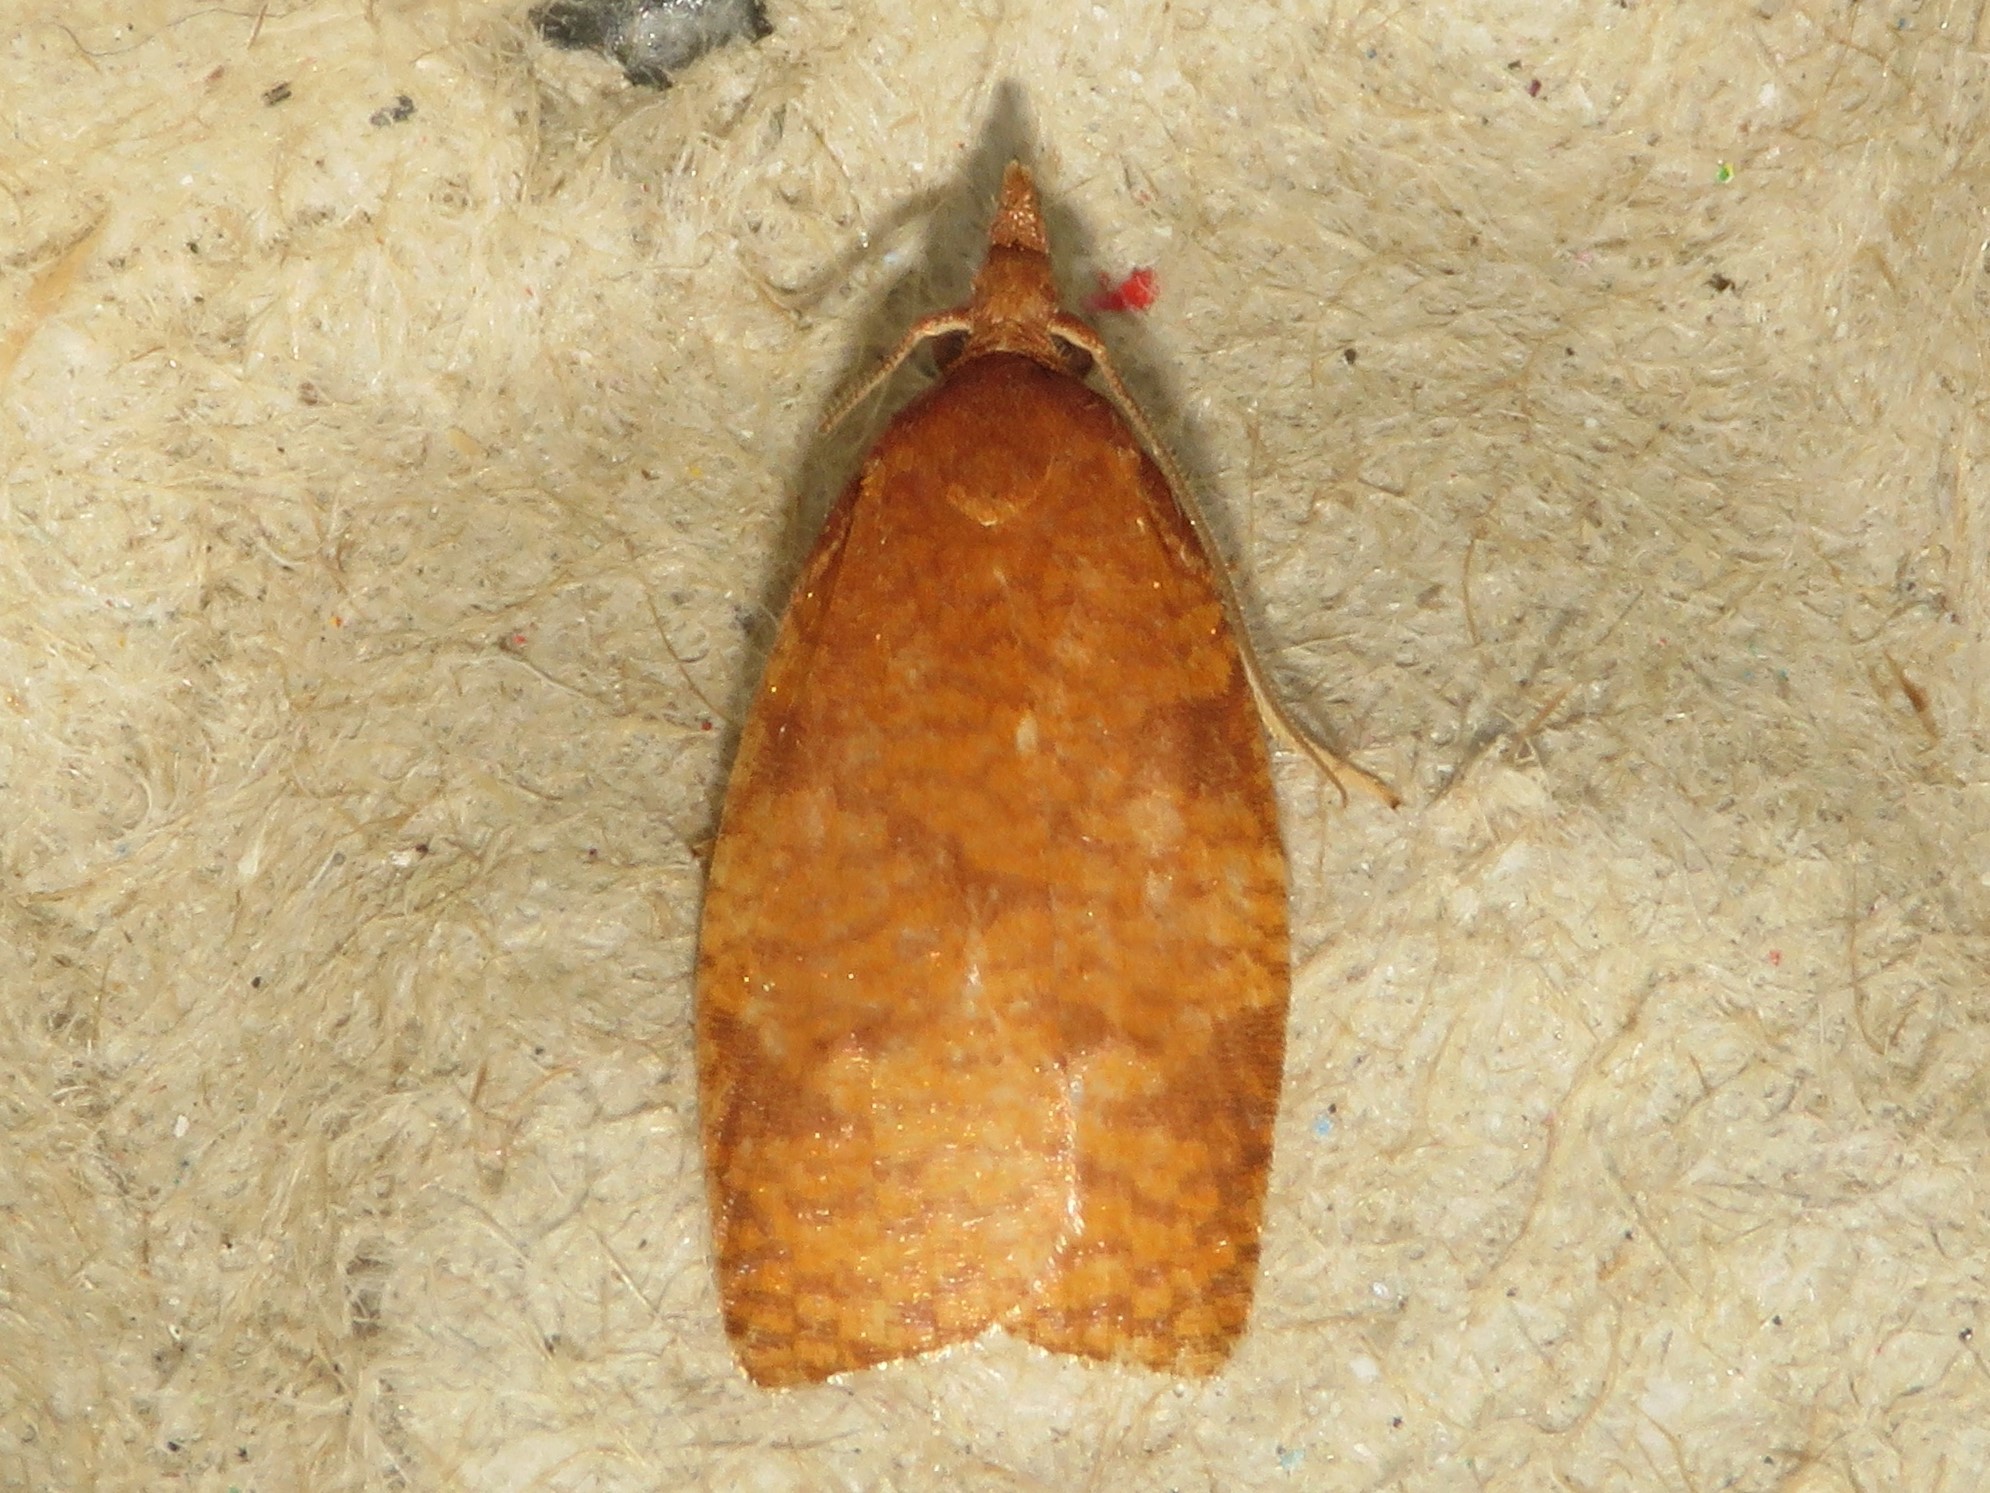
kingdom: Animalia
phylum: Arthropoda
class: Insecta
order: Lepidoptera
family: Tortricidae
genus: Cenopis
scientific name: Cenopis directana
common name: Chokecherry leafroller moth
